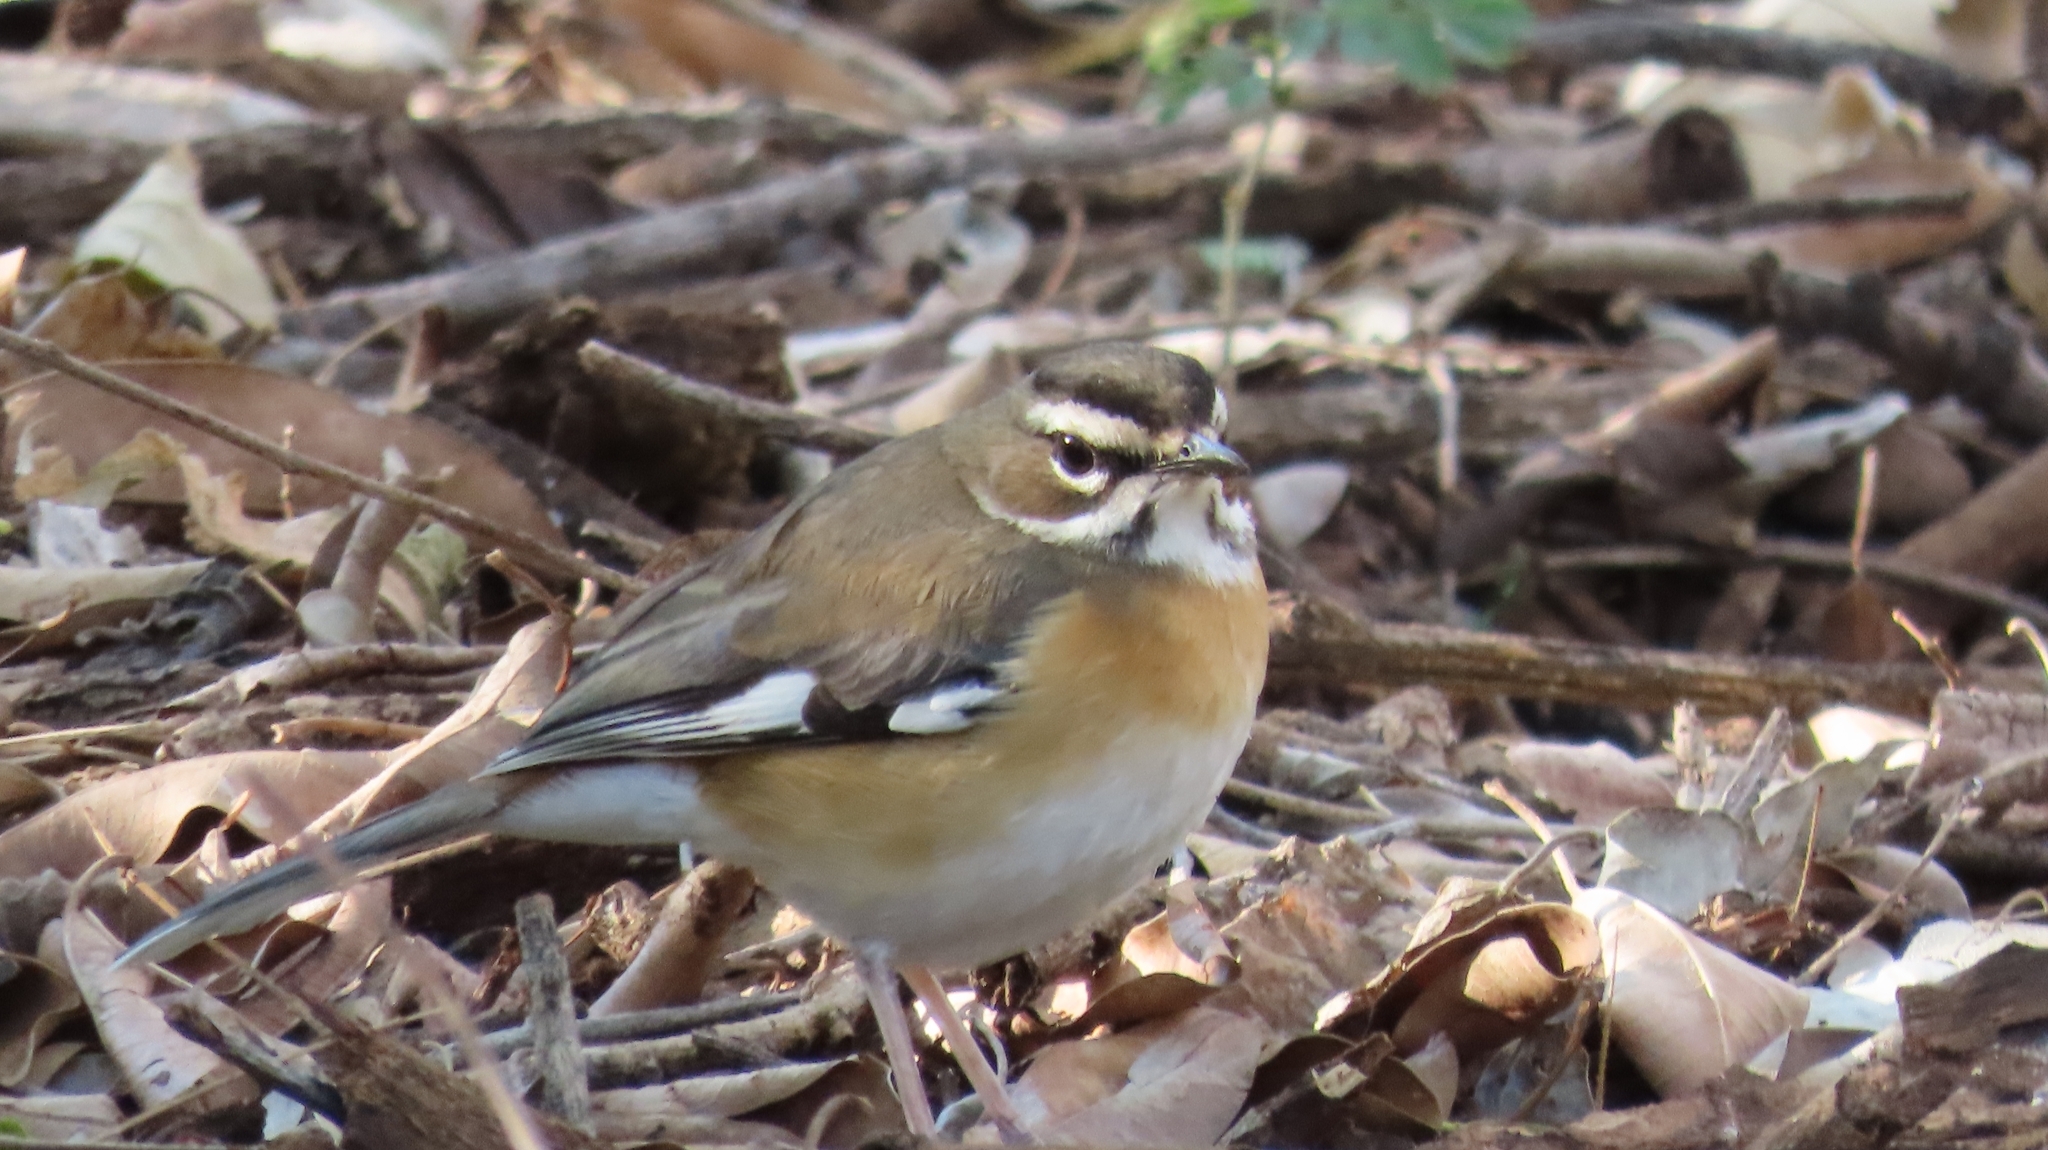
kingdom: Animalia
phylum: Chordata
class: Aves
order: Passeriformes
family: Muscicapidae
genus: Erythropygia
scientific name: Erythropygia quadrivirgata
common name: Bearded scrub robin
